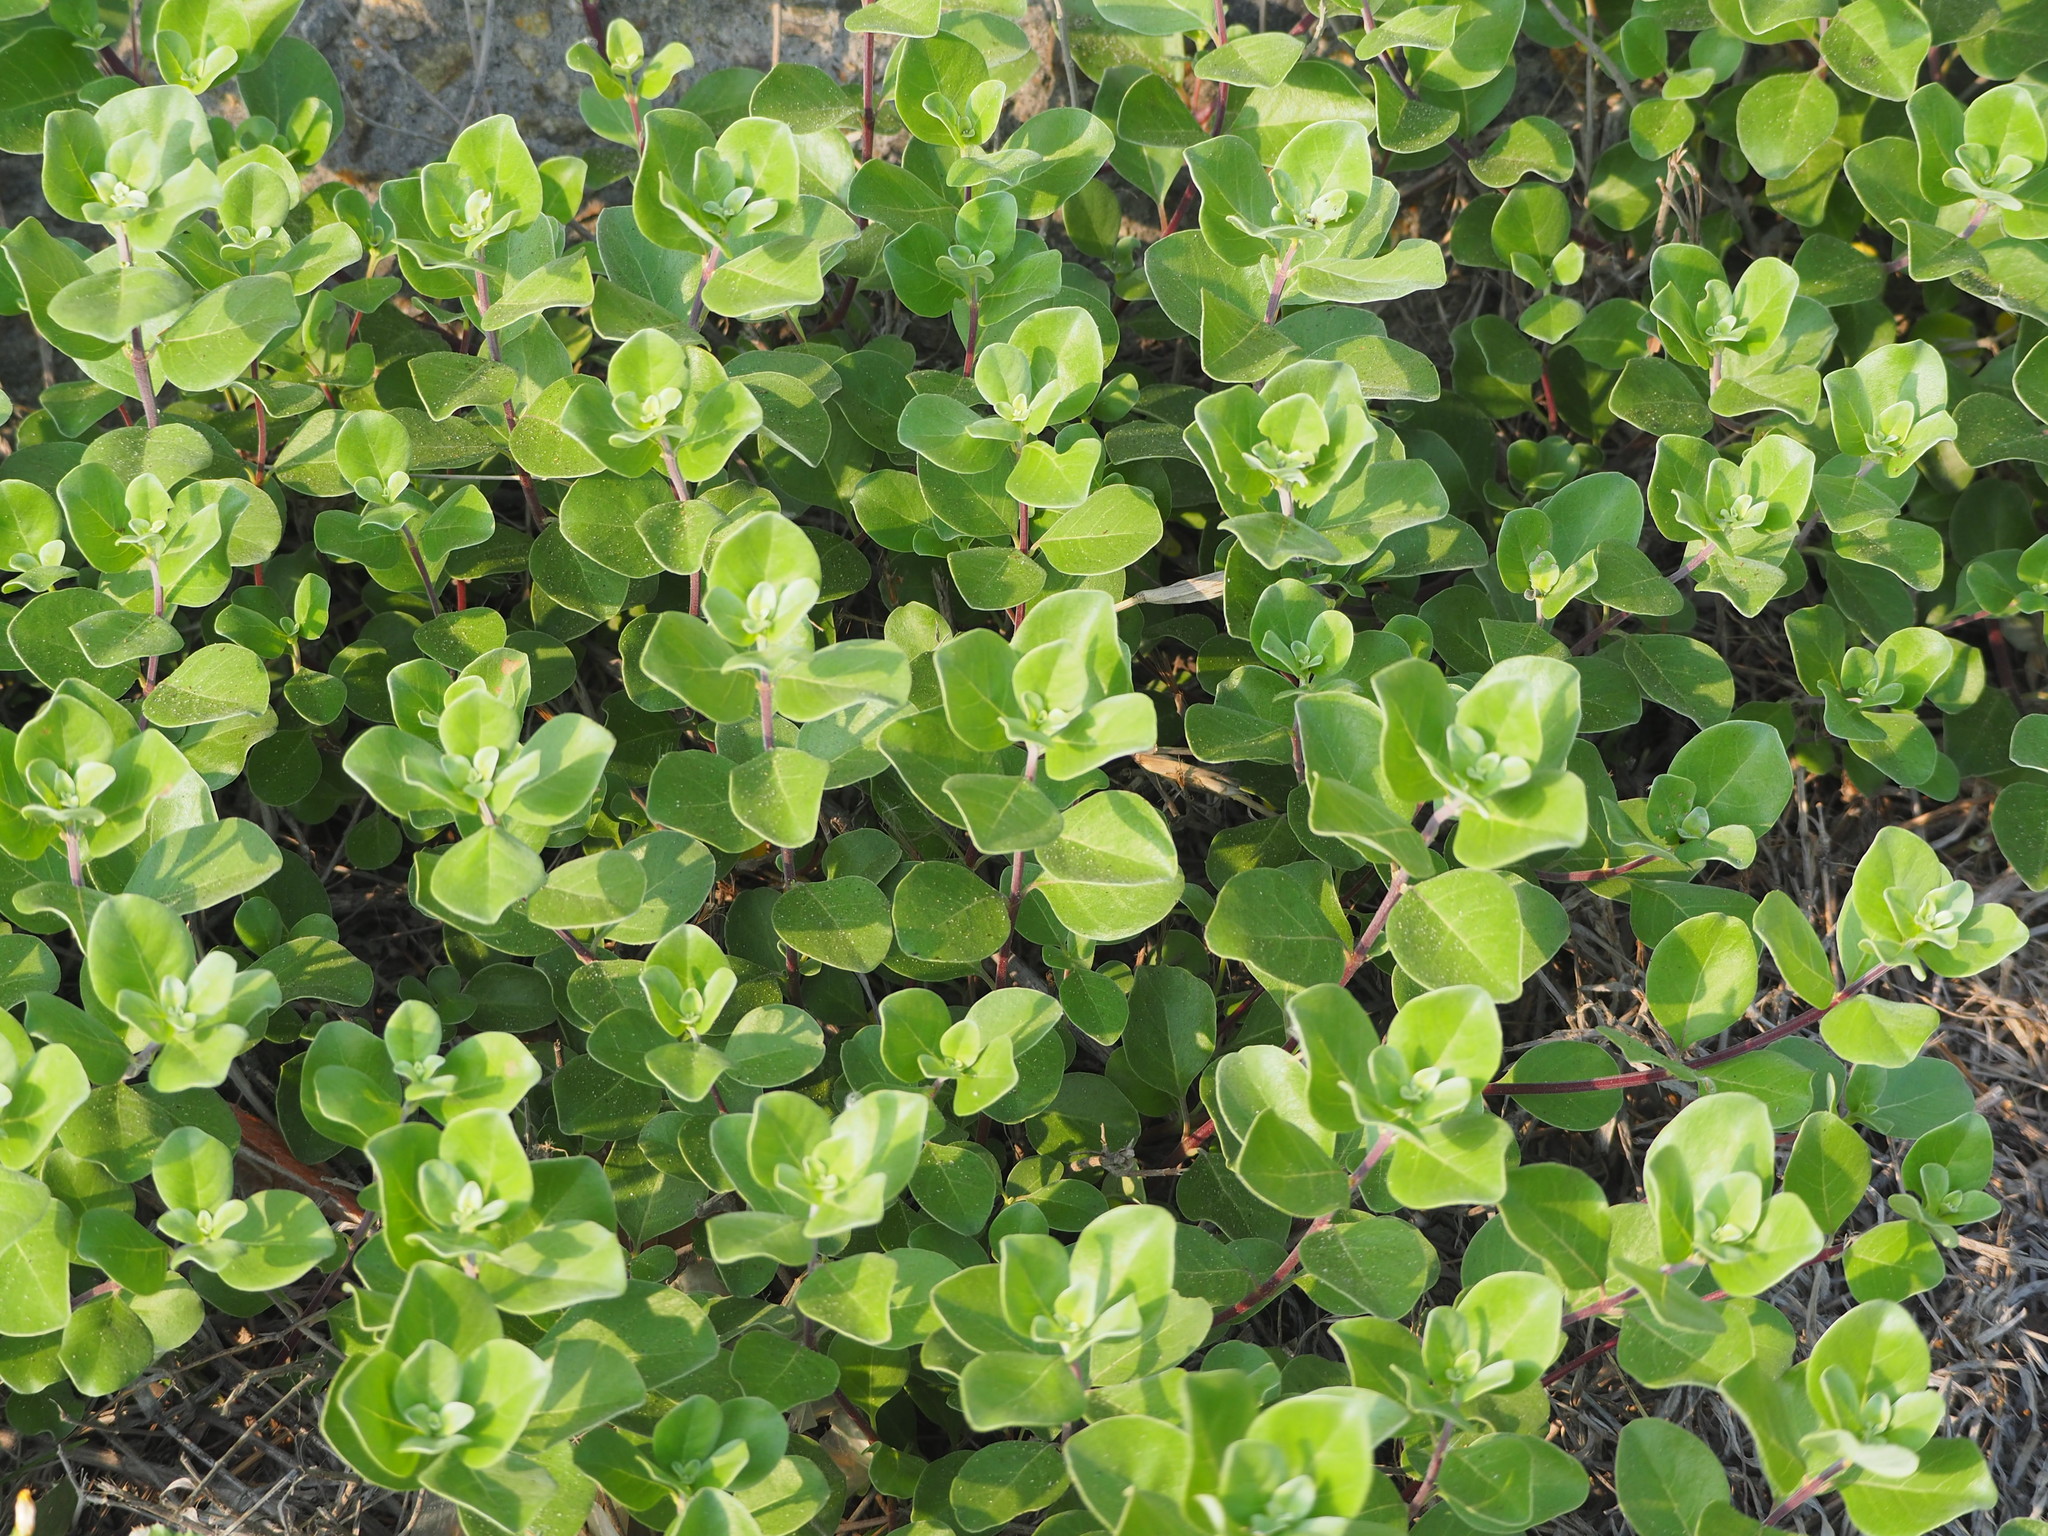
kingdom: Plantae
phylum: Tracheophyta
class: Magnoliopsida
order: Lamiales
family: Lamiaceae
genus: Vitex
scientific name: Vitex rotundifolia
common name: Beach vitex
